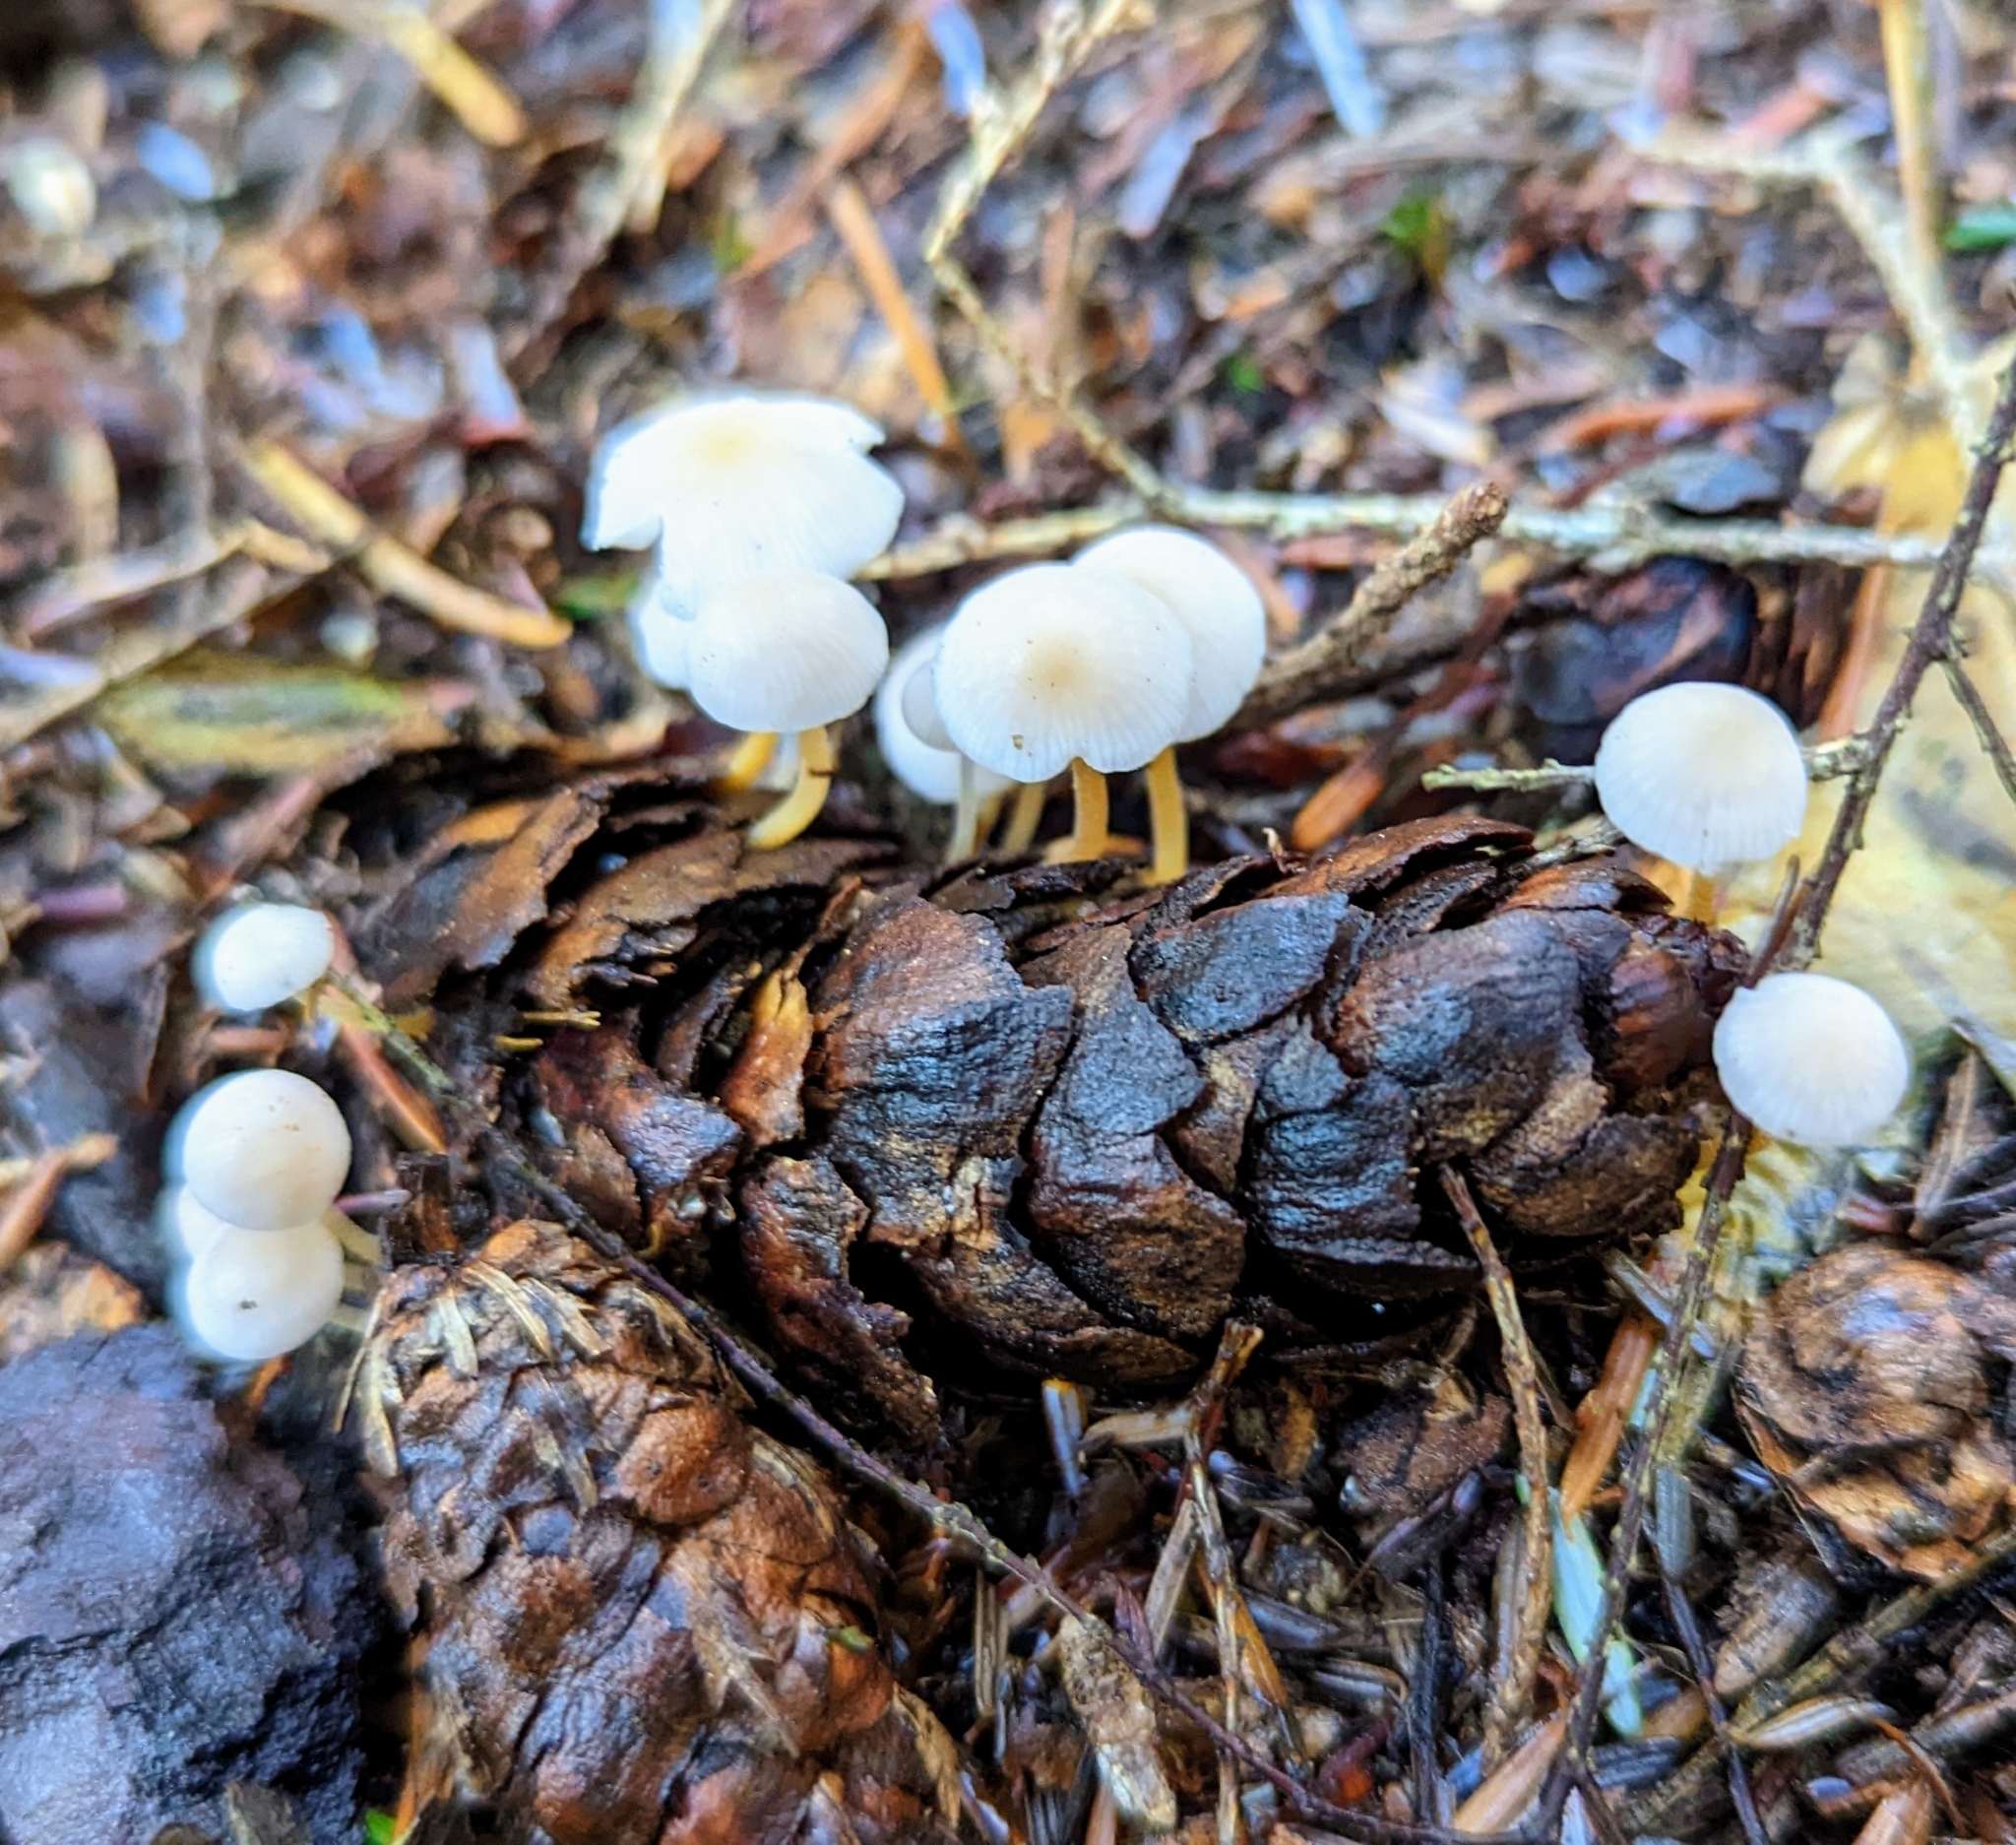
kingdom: Fungi
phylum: Basidiomycota
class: Agaricomycetes
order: Agaricales
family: Physalacriaceae
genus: Strobilurus
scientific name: Strobilurus trullisatus
